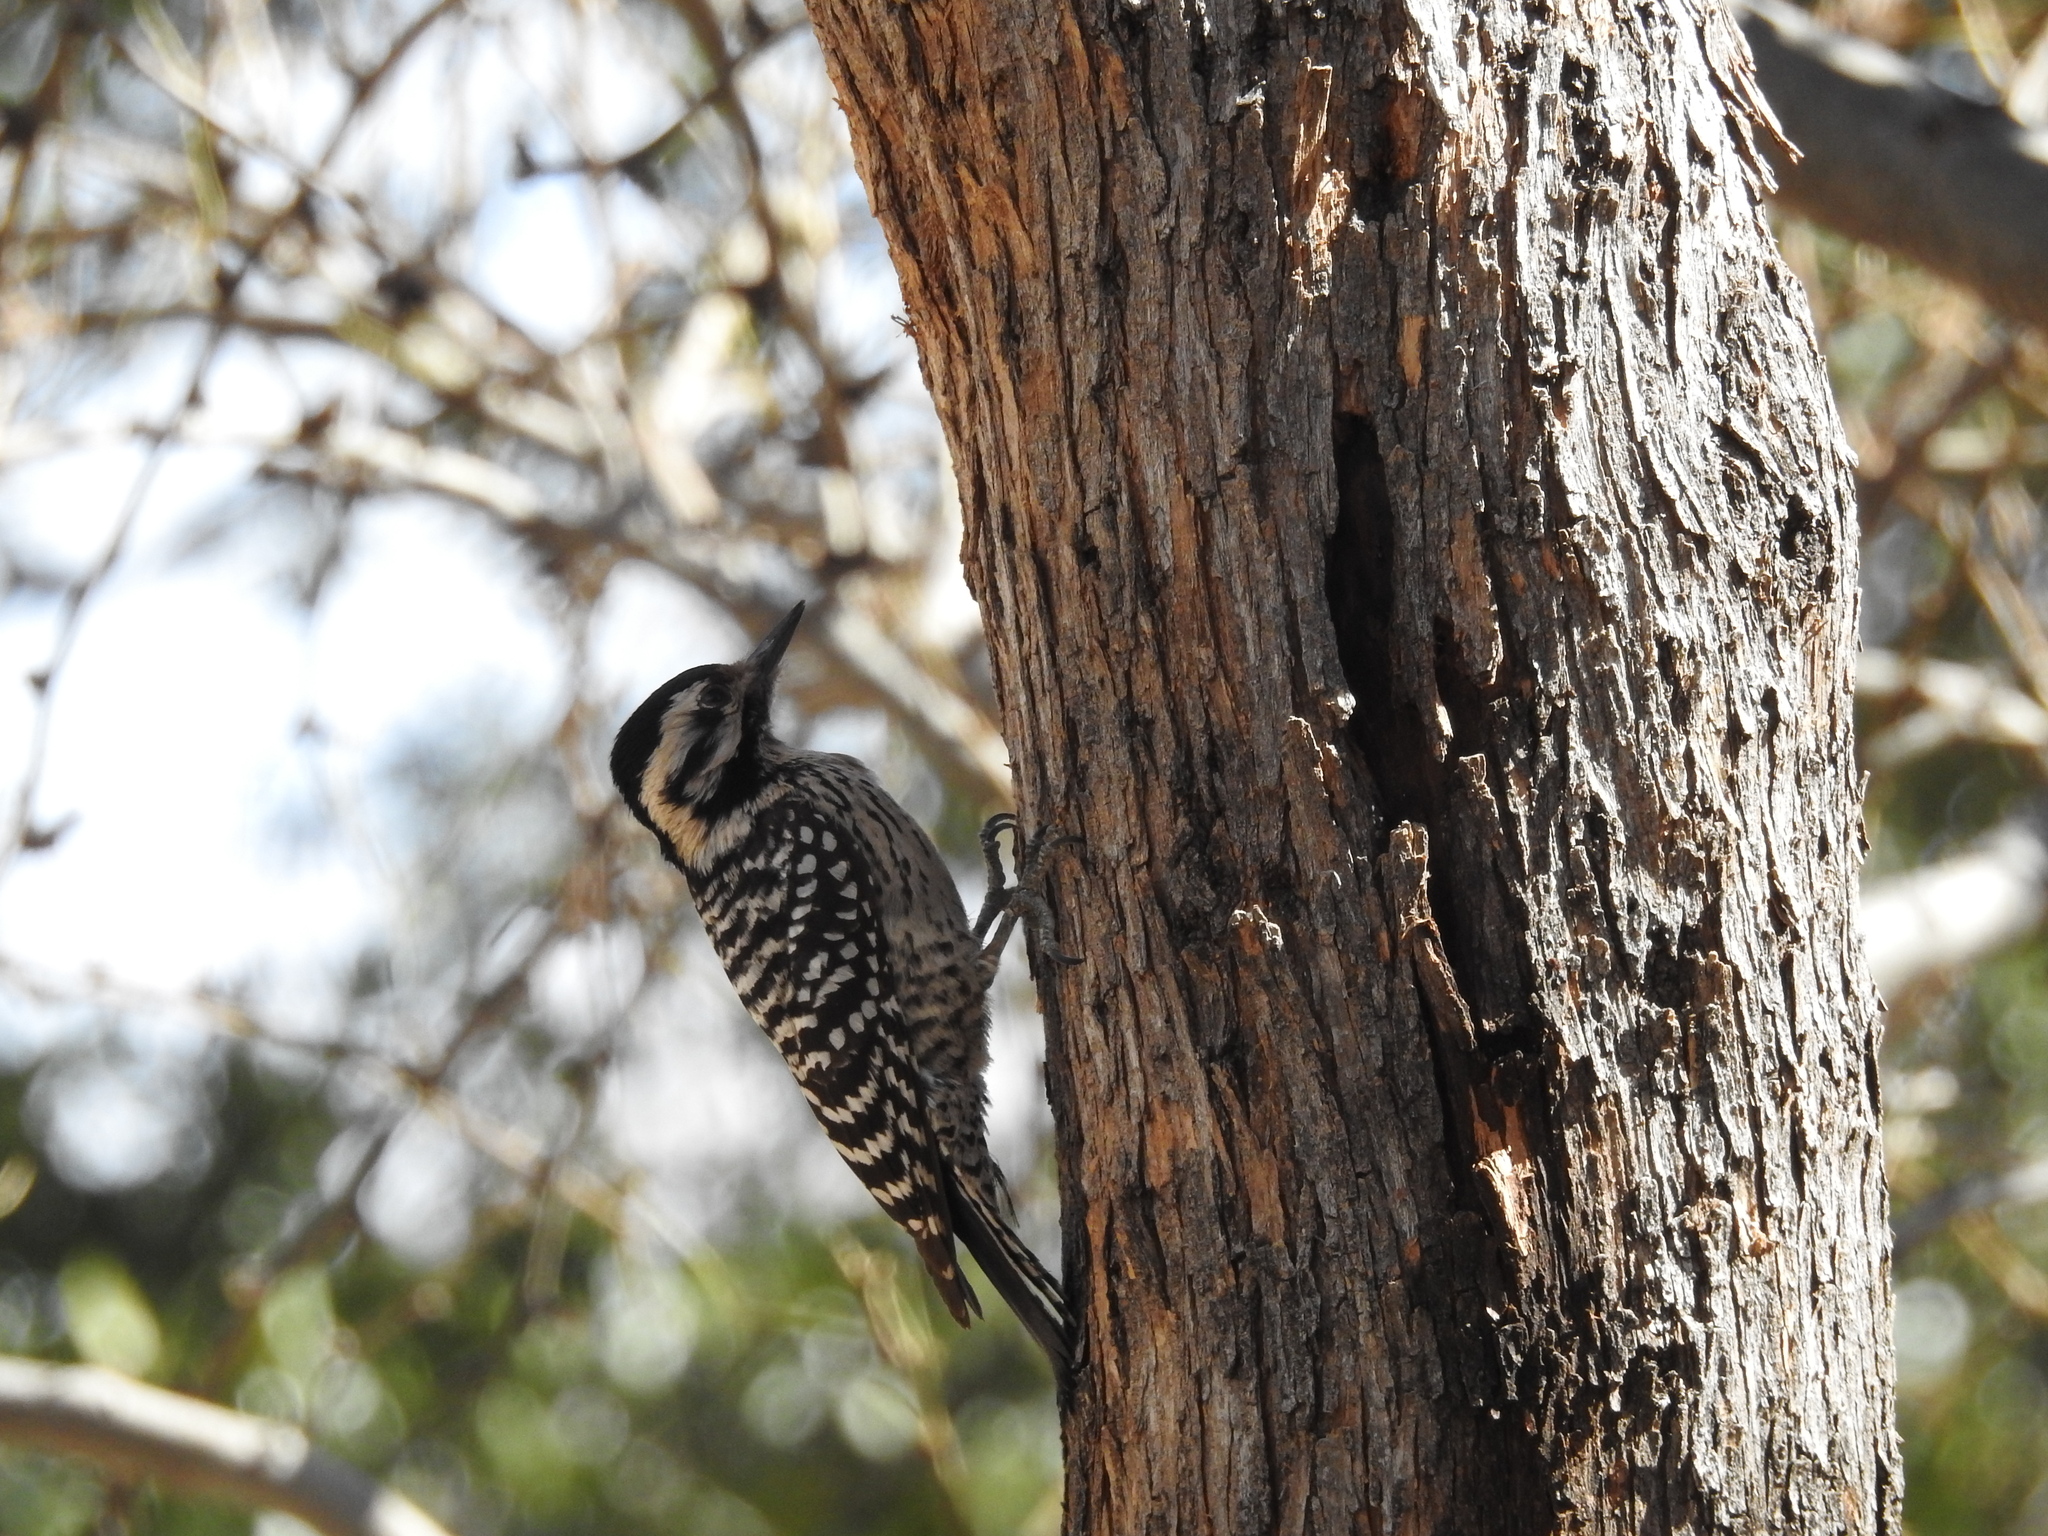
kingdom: Animalia
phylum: Chordata
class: Aves
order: Piciformes
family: Picidae
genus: Dryobates
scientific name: Dryobates scalaris
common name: Ladder-backed woodpecker
